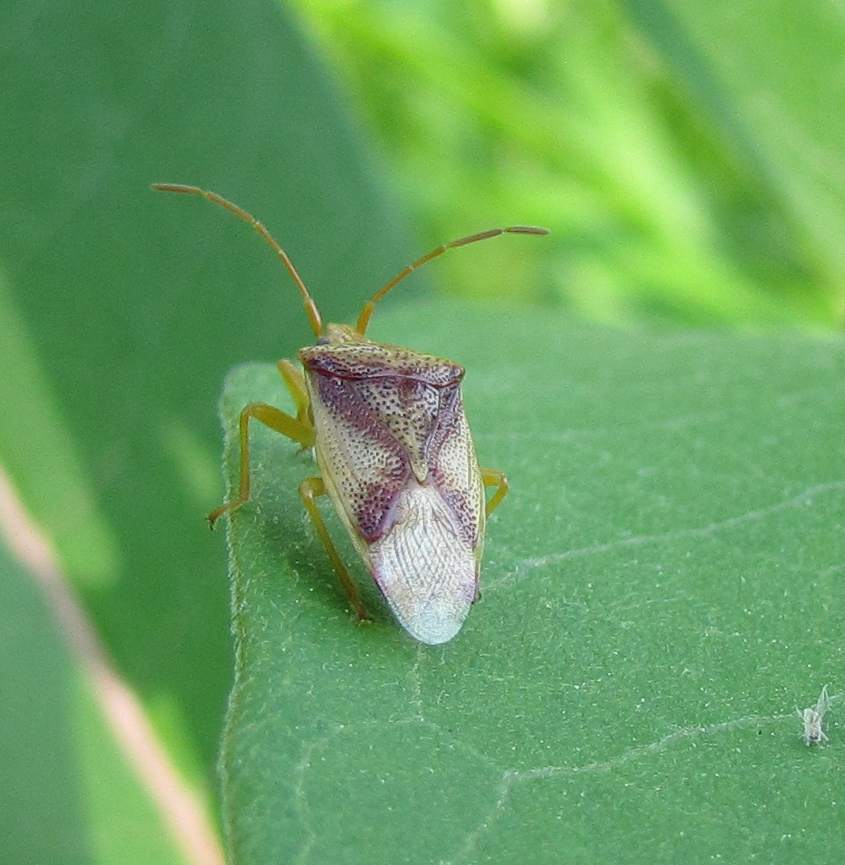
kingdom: Animalia
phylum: Arthropoda
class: Insecta
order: Hemiptera
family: Acanthosomatidae
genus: Elasmostethus
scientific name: Elasmostethus cruciatus
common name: Red-cross shield bug
